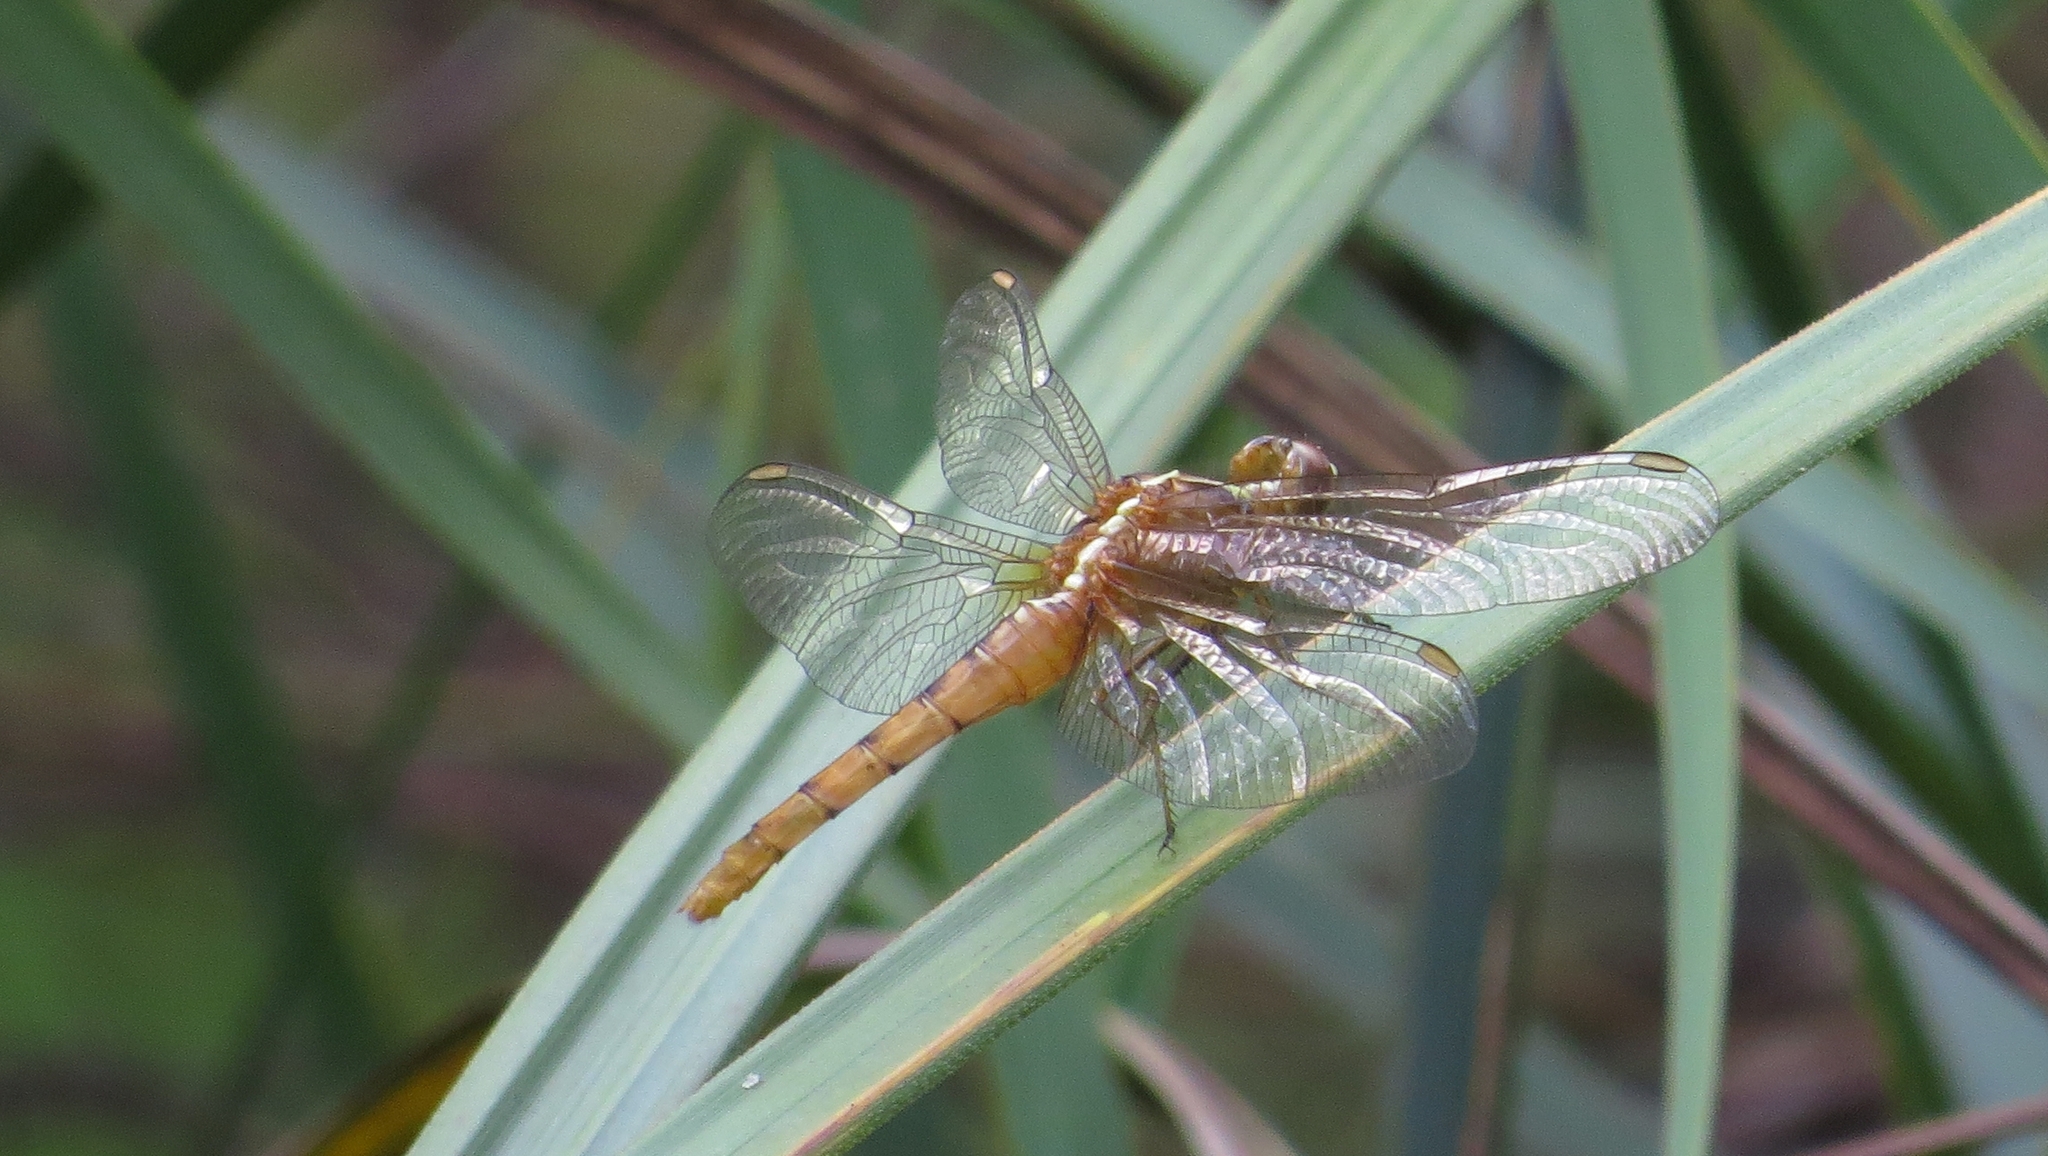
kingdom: Animalia
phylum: Arthropoda
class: Insecta
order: Odonata
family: Libellulidae
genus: Rhodothemis
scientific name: Rhodothemis lieftincki
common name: Red arrow
